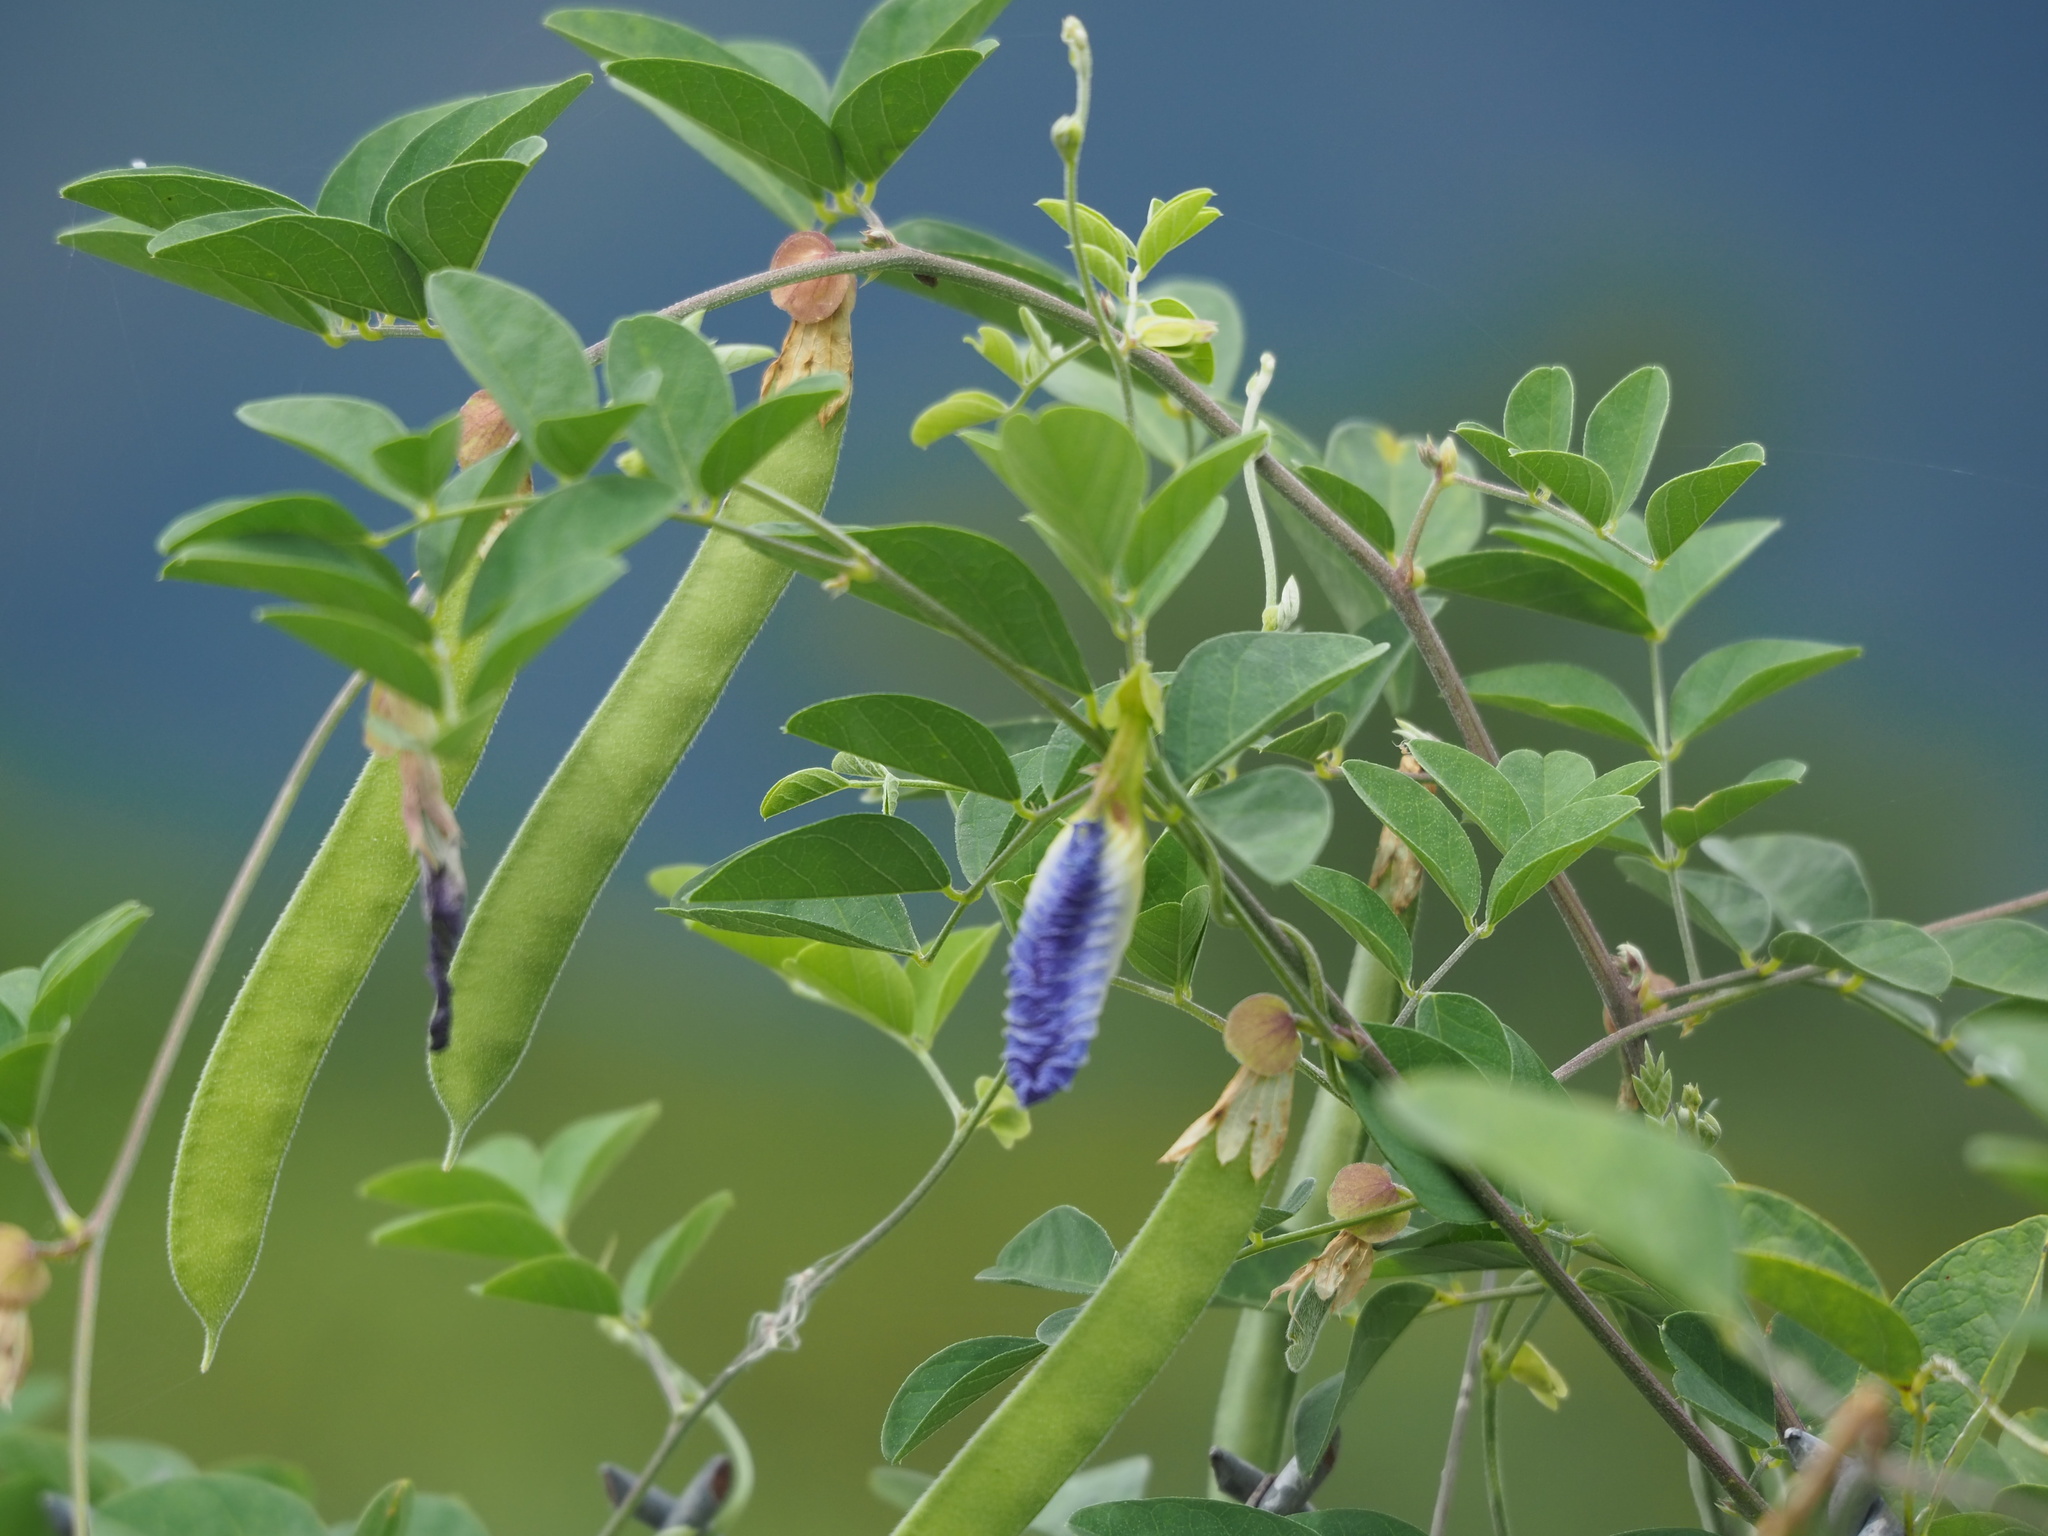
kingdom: Plantae
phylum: Tracheophyta
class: Magnoliopsida
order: Fabales
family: Fabaceae
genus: Clitoria
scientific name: Clitoria ternatea
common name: Asian pigeonwings
